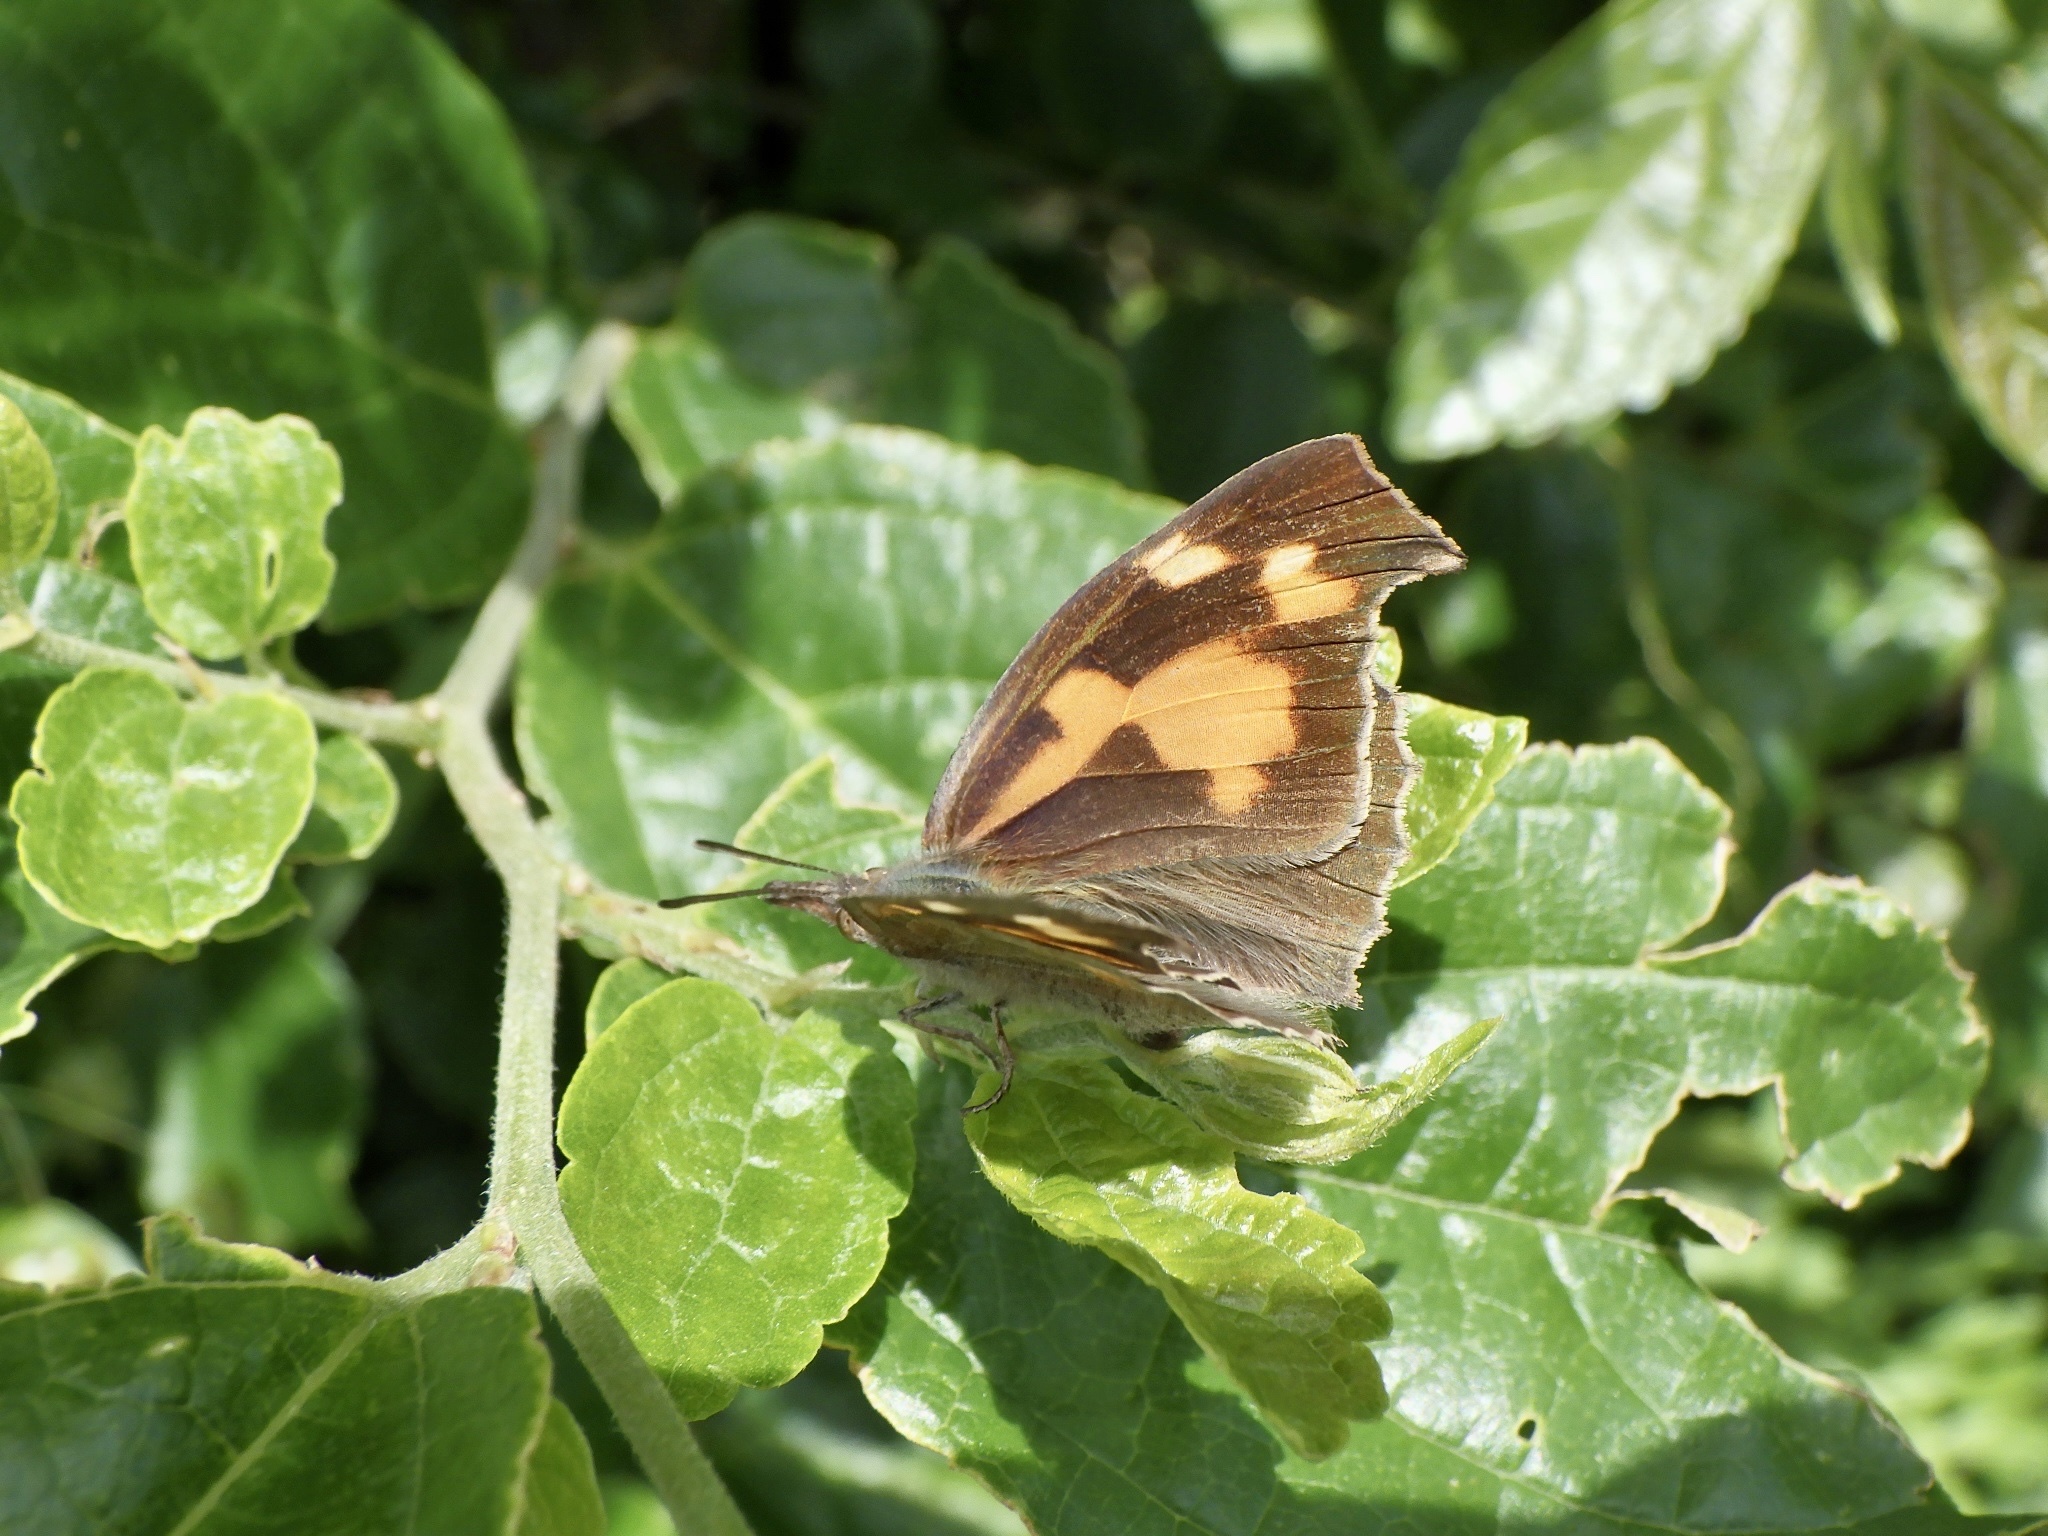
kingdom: Animalia
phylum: Arthropoda
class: Insecta
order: Lepidoptera
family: Nymphalidae
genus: Libythea
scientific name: Libythea lepita
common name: Common beak
